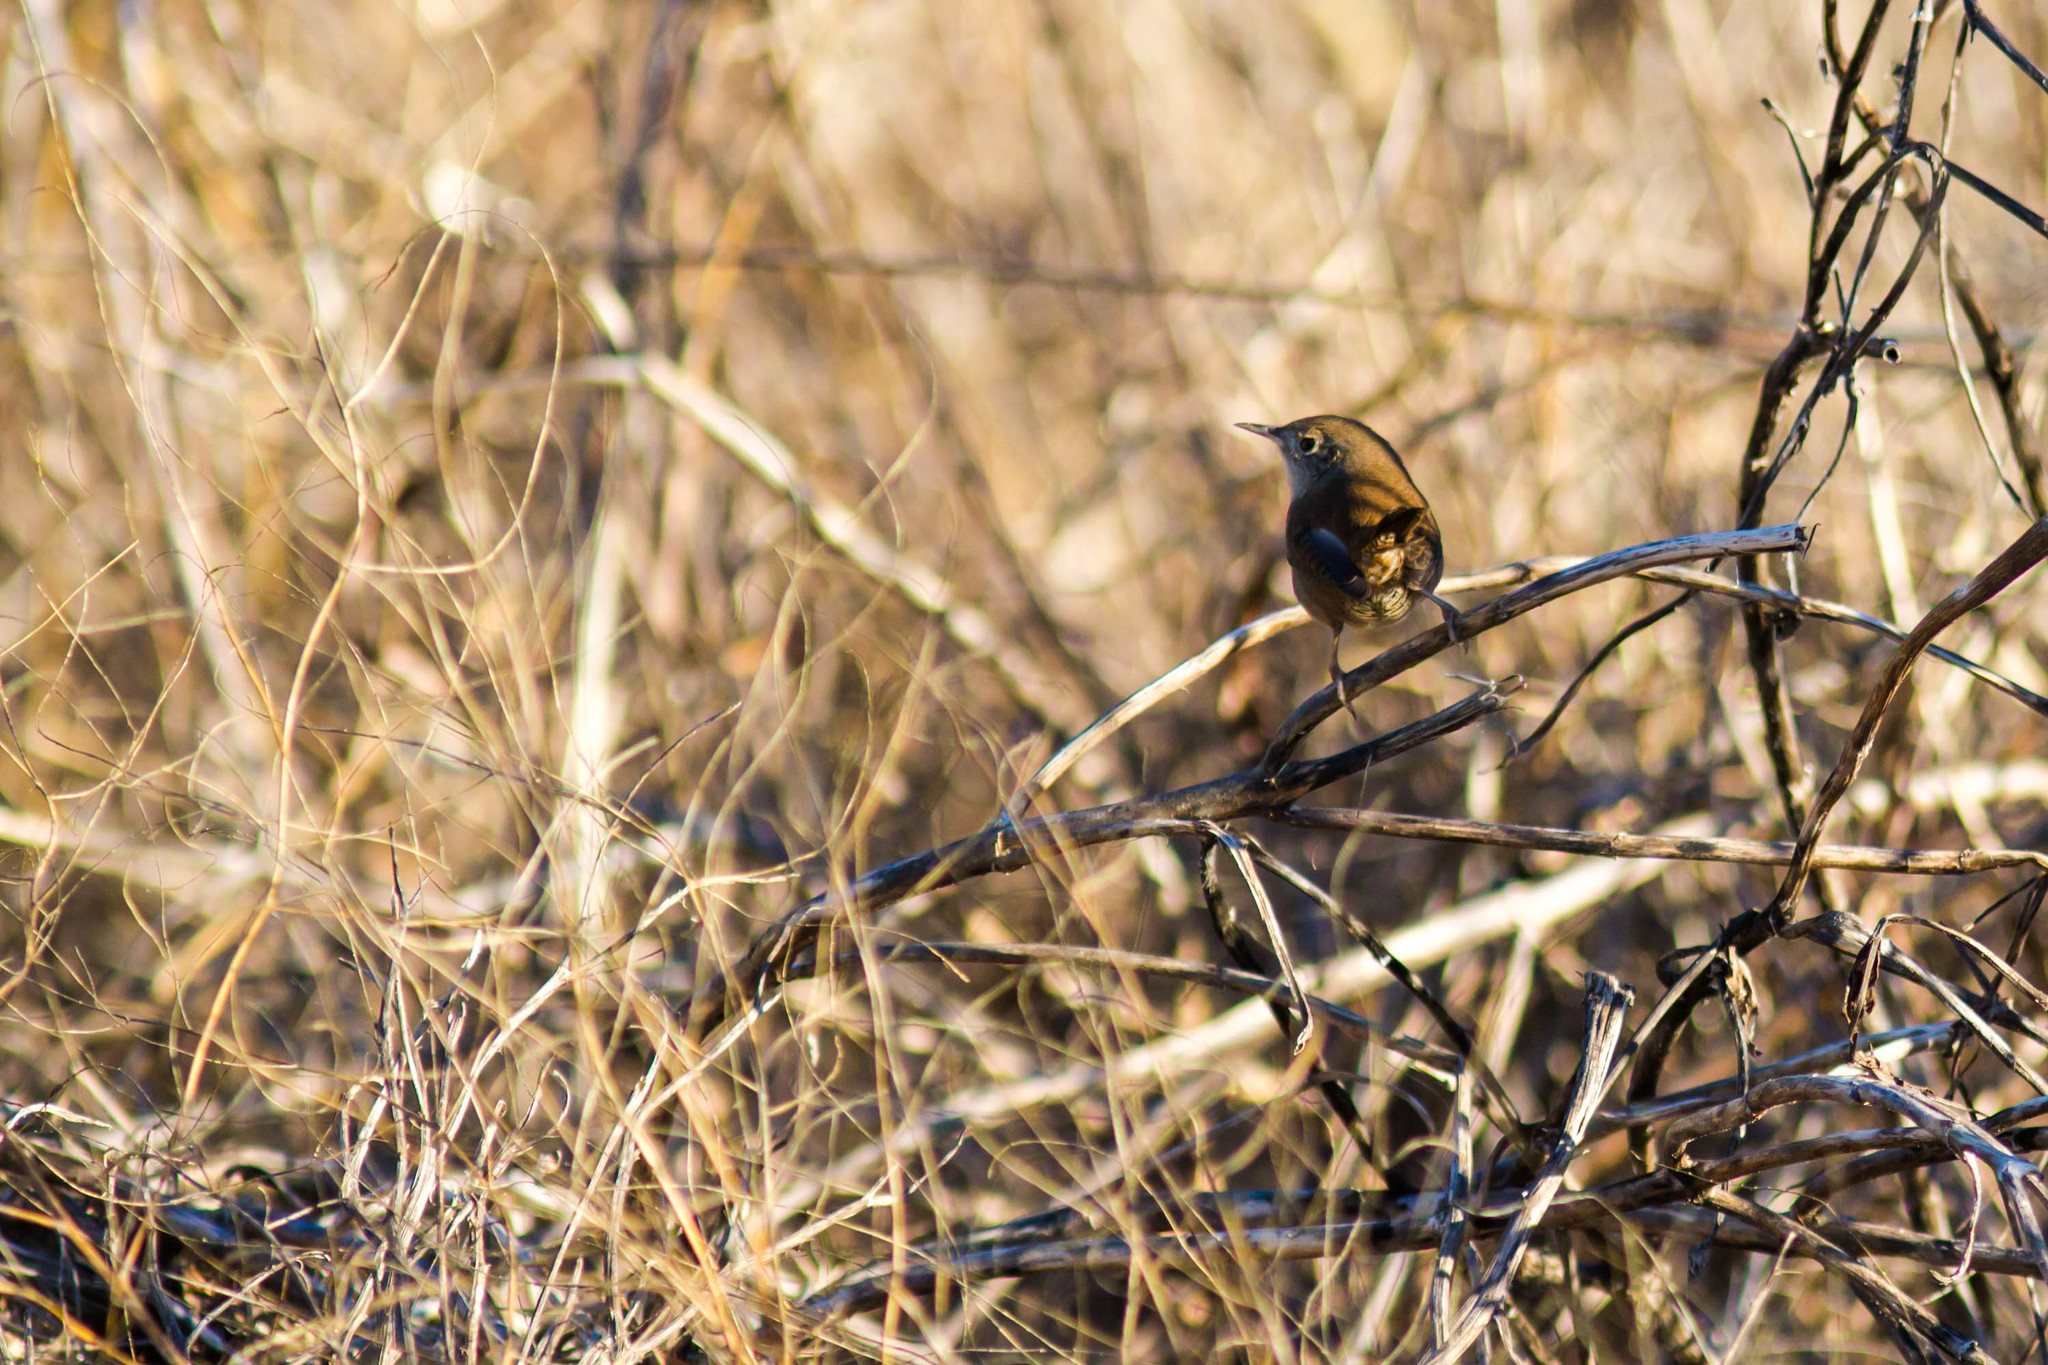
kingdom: Animalia
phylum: Chordata
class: Aves
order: Passeriformes
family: Troglodytidae
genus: Troglodytes
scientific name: Troglodytes aedon
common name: House wren
